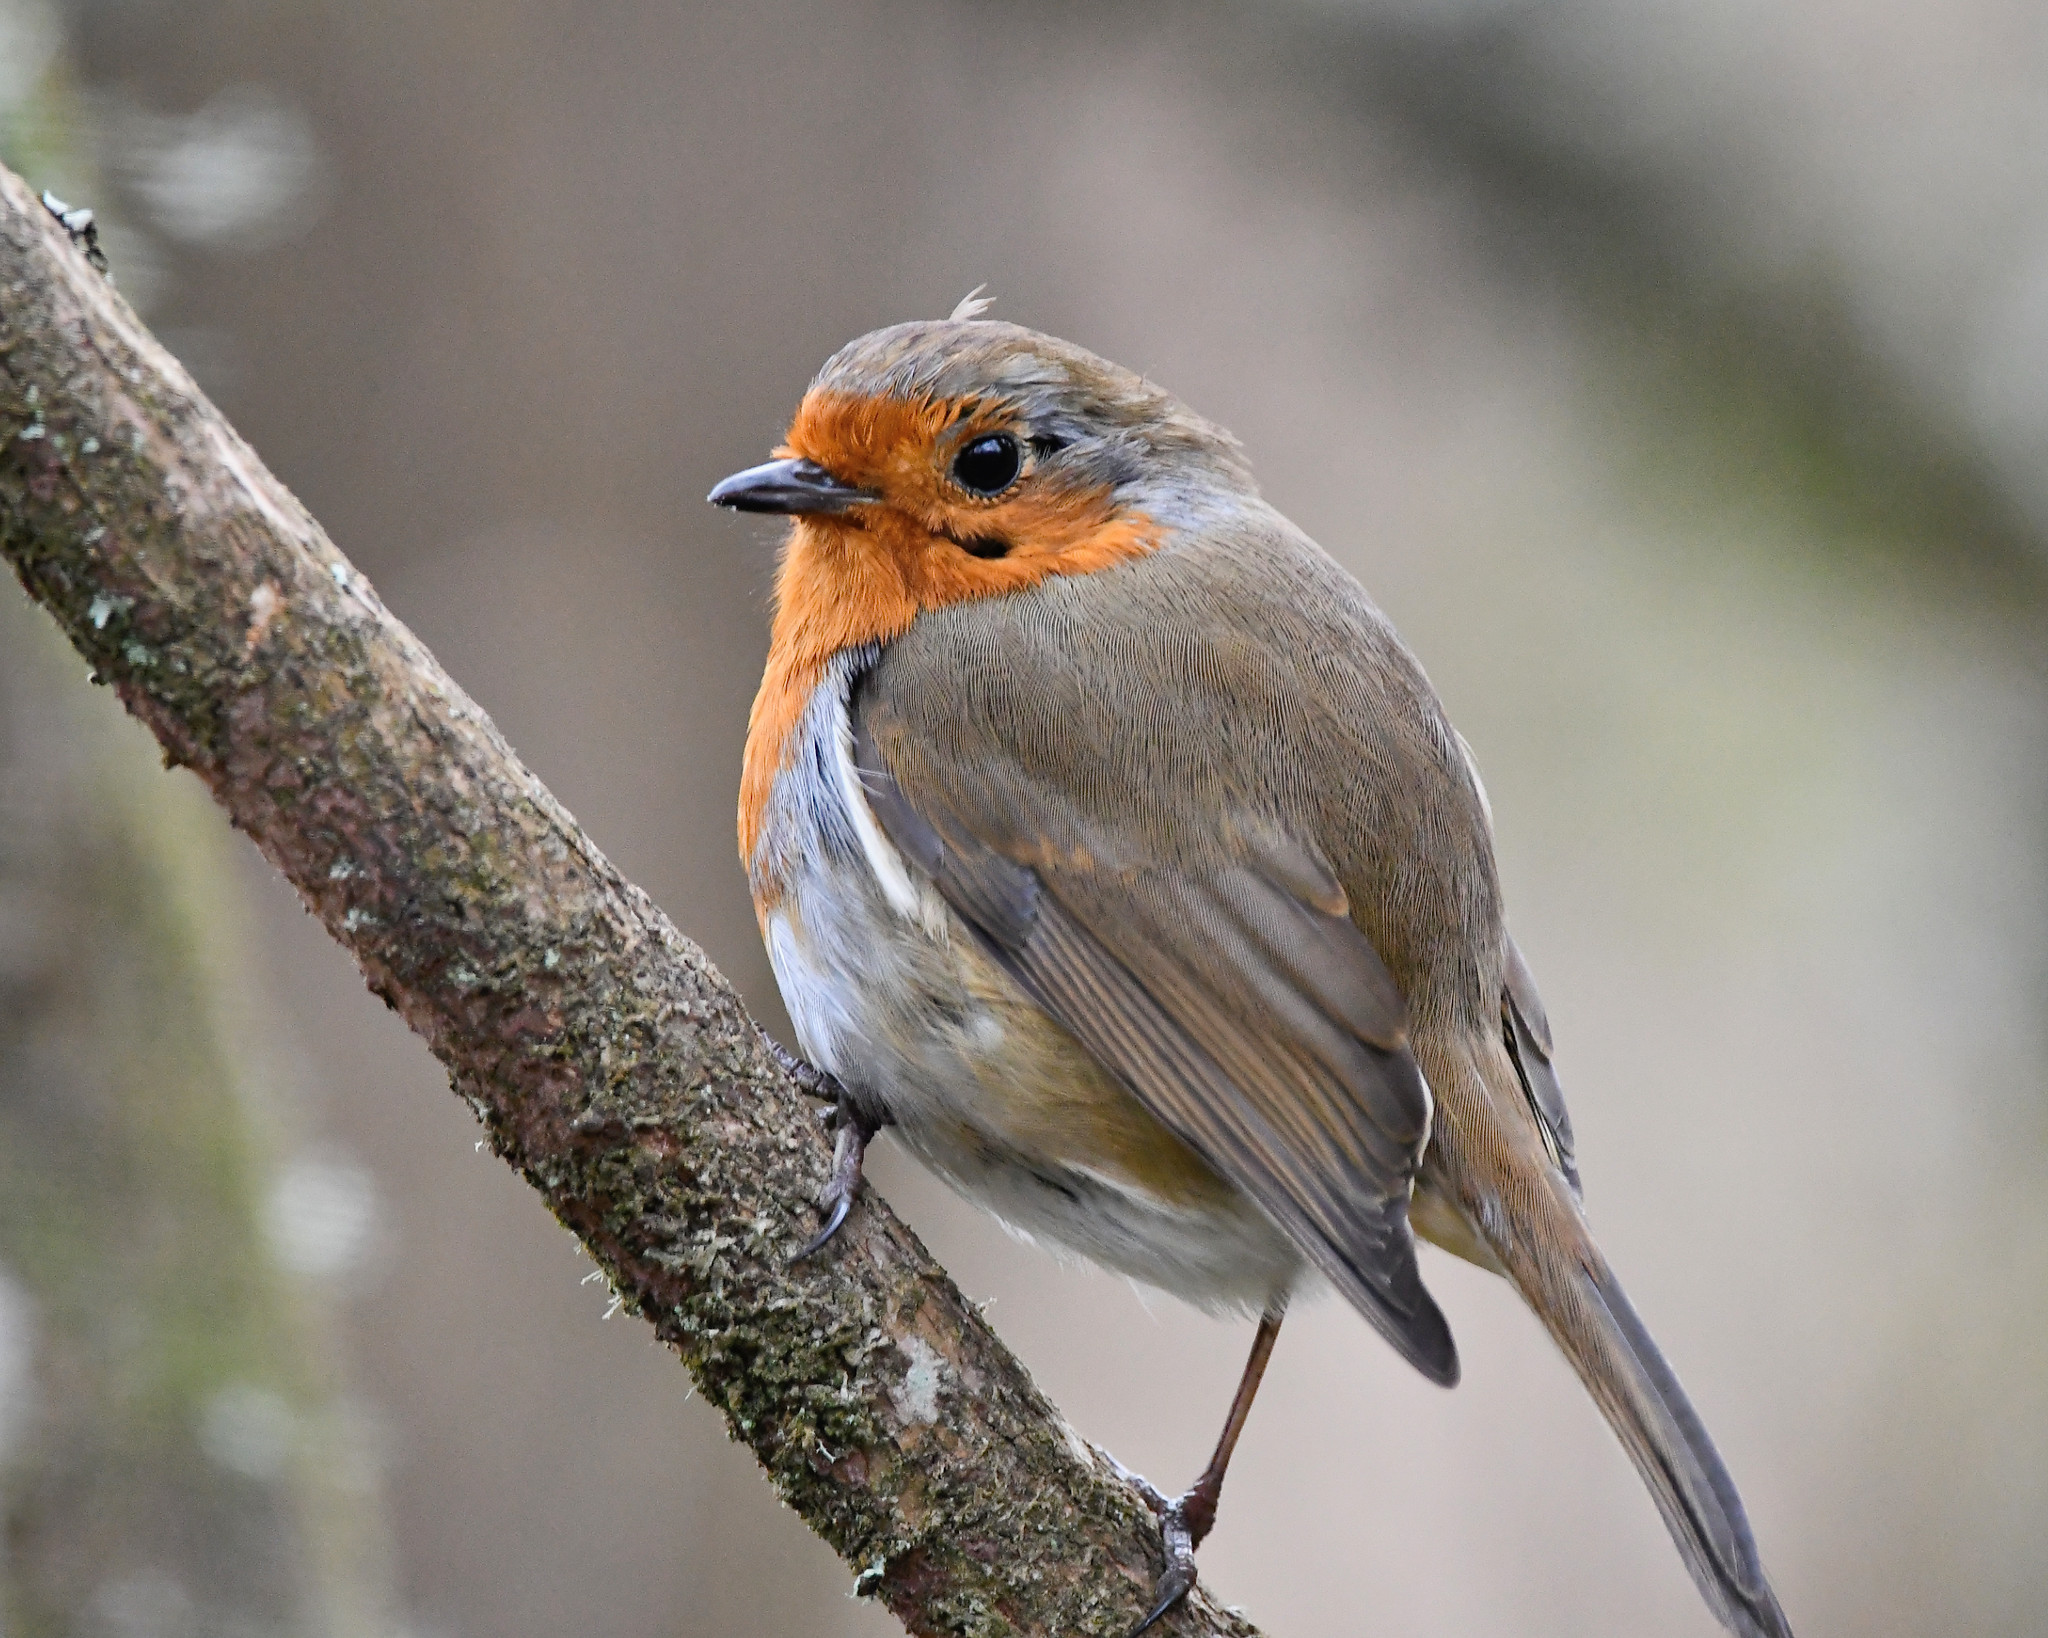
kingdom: Animalia
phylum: Chordata
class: Aves
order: Passeriformes
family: Muscicapidae
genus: Erithacus
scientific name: Erithacus rubecula
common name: European robin
